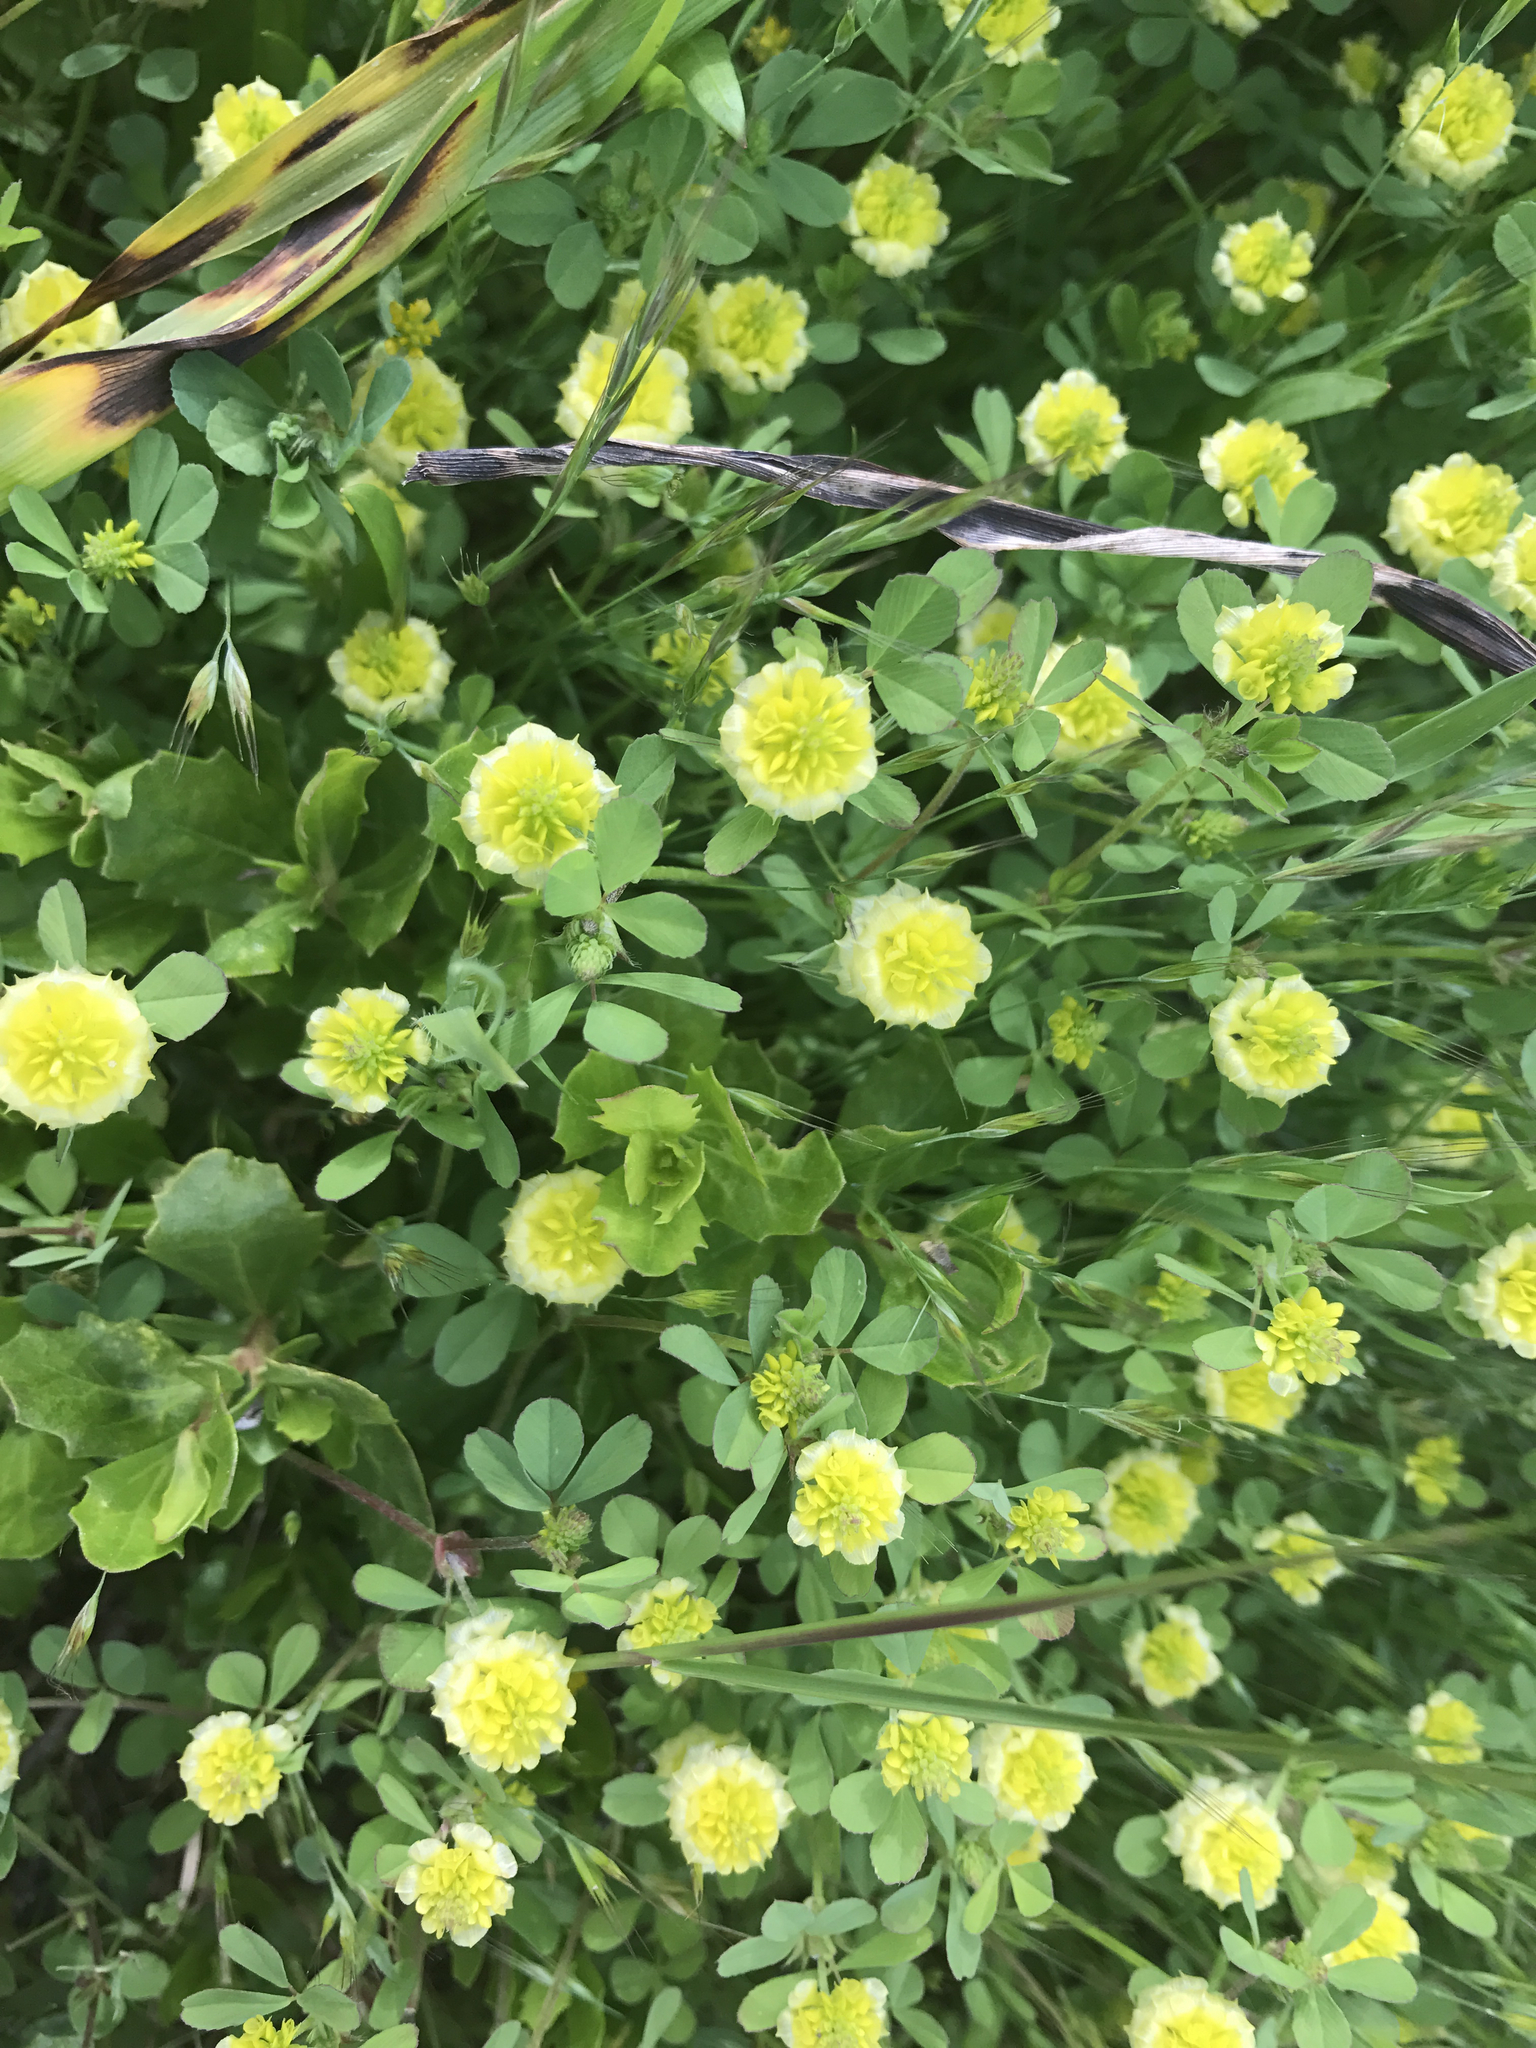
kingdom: Plantae
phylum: Tracheophyta
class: Magnoliopsida
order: Fabales
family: Fabaceae
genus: Trifolium
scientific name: Trifolium campestre
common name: Field clover
